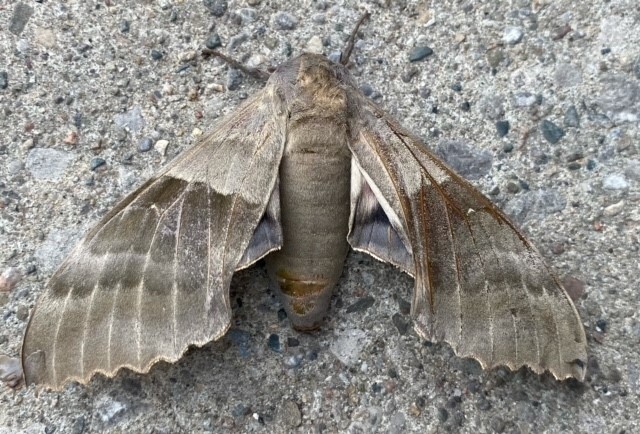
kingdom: Animalia
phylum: Arthropoda
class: Insecta
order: Lepidoptera
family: Sphingidae
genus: Pachysphinx
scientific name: Pachysphinx modesta
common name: Big poplar sphinx
